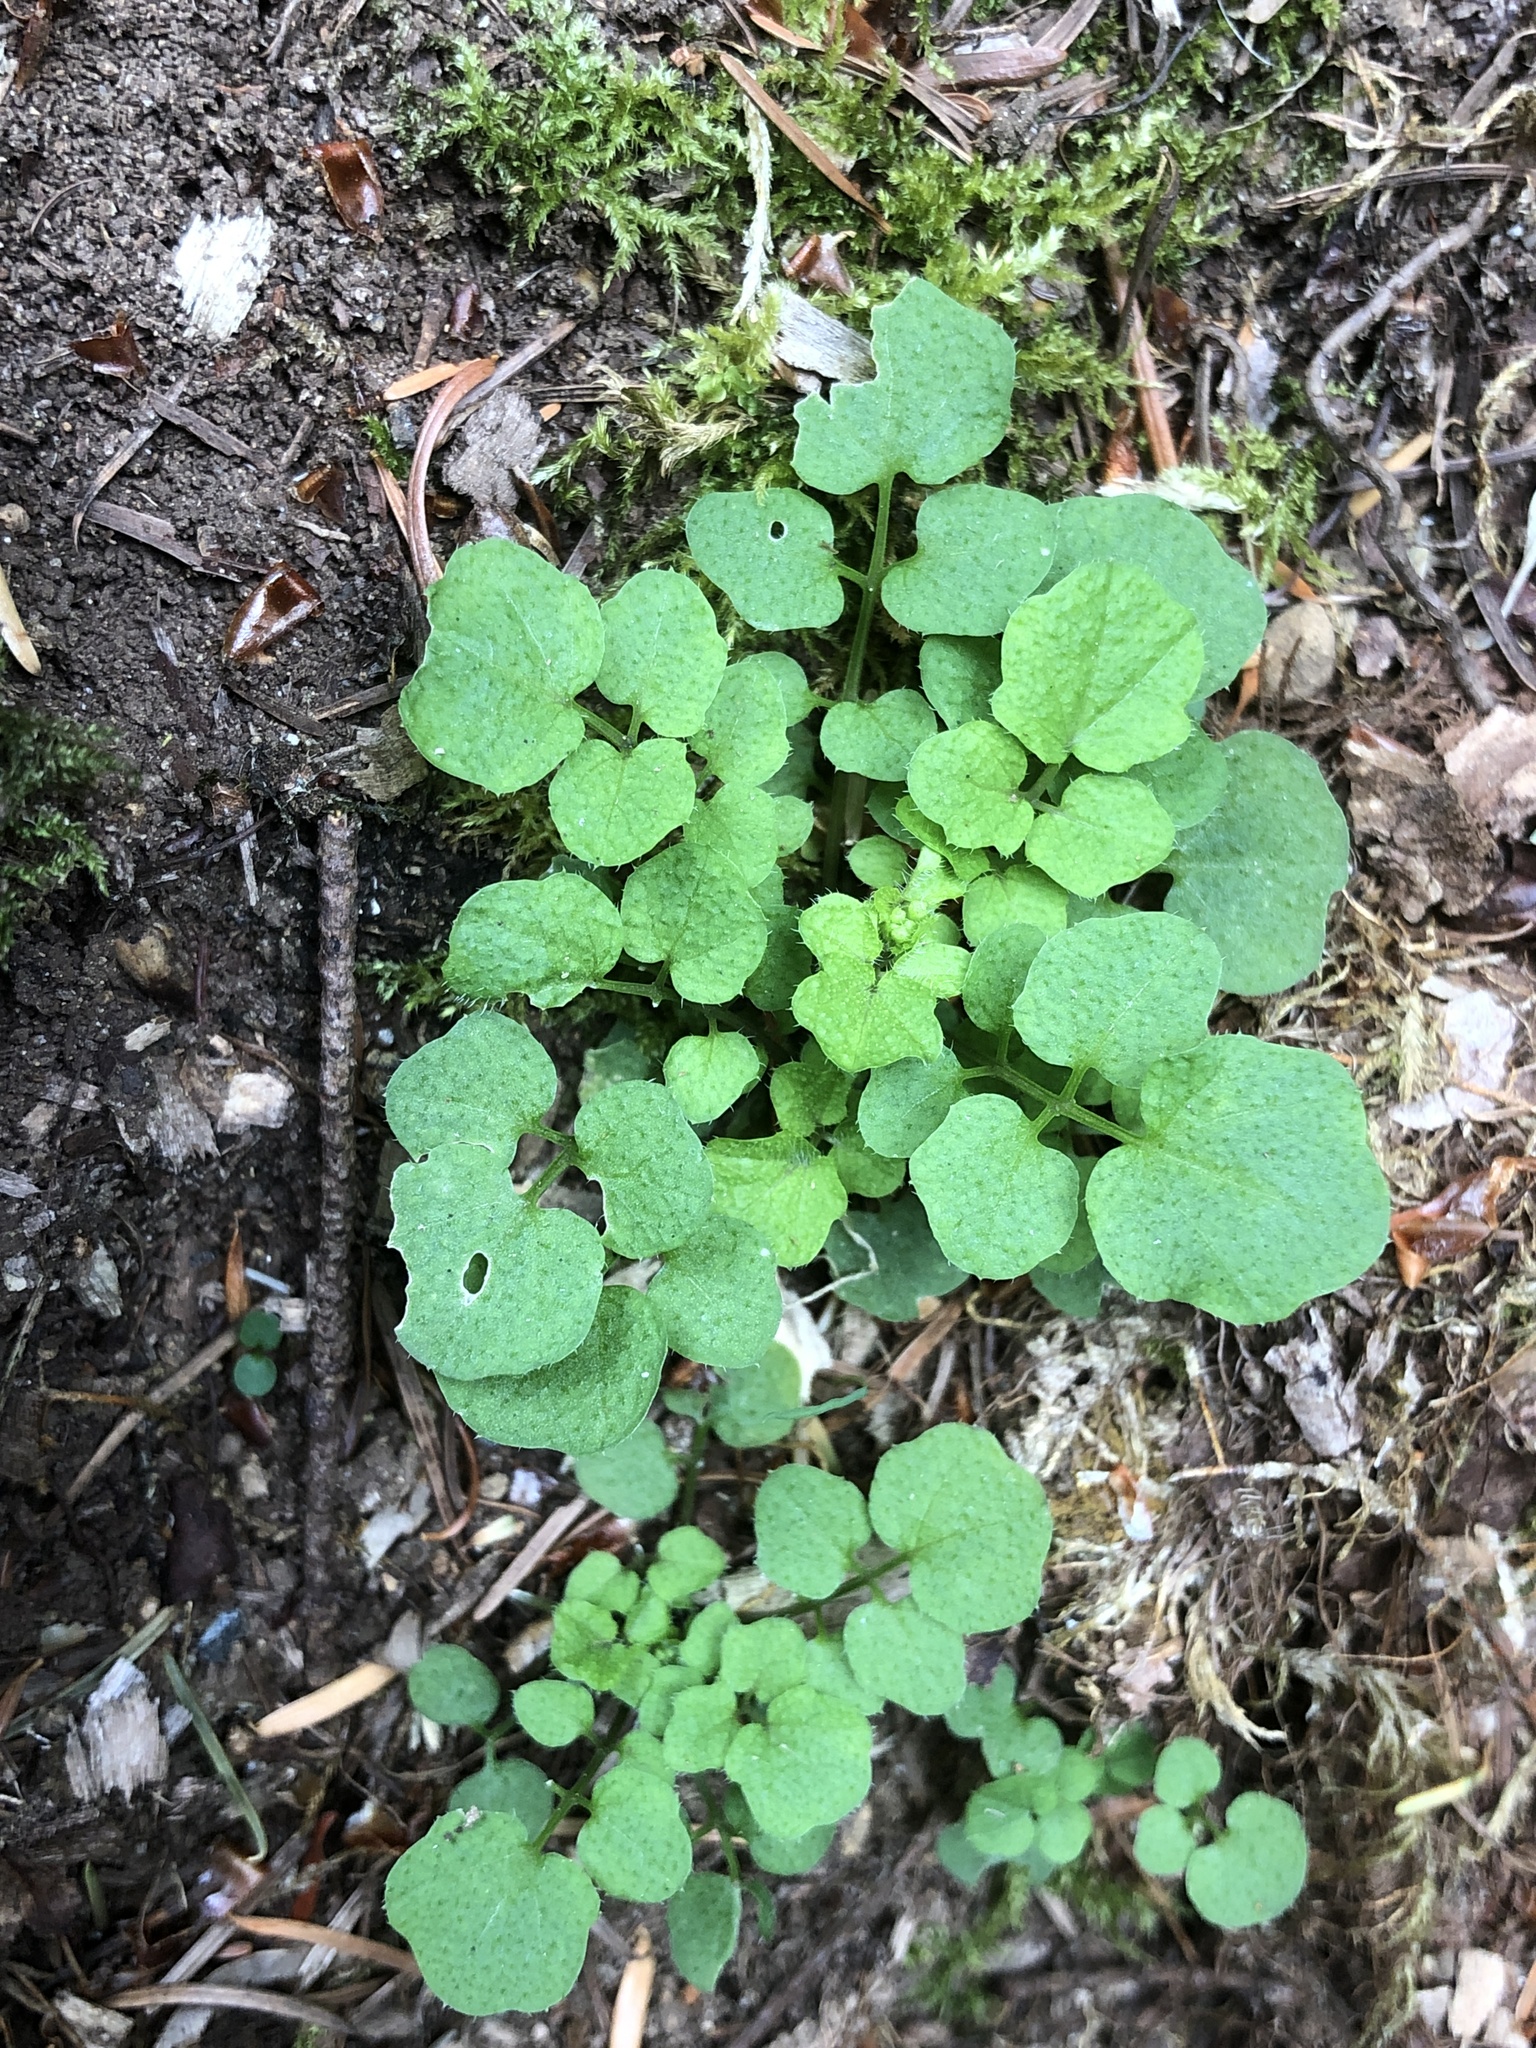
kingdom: Plantae
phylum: Tracheophyta
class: Magnoliopsida
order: Brassicales
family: Brassicaceae
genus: Cardamine
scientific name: Cardamine flexuosa
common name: Woodland bittercress
